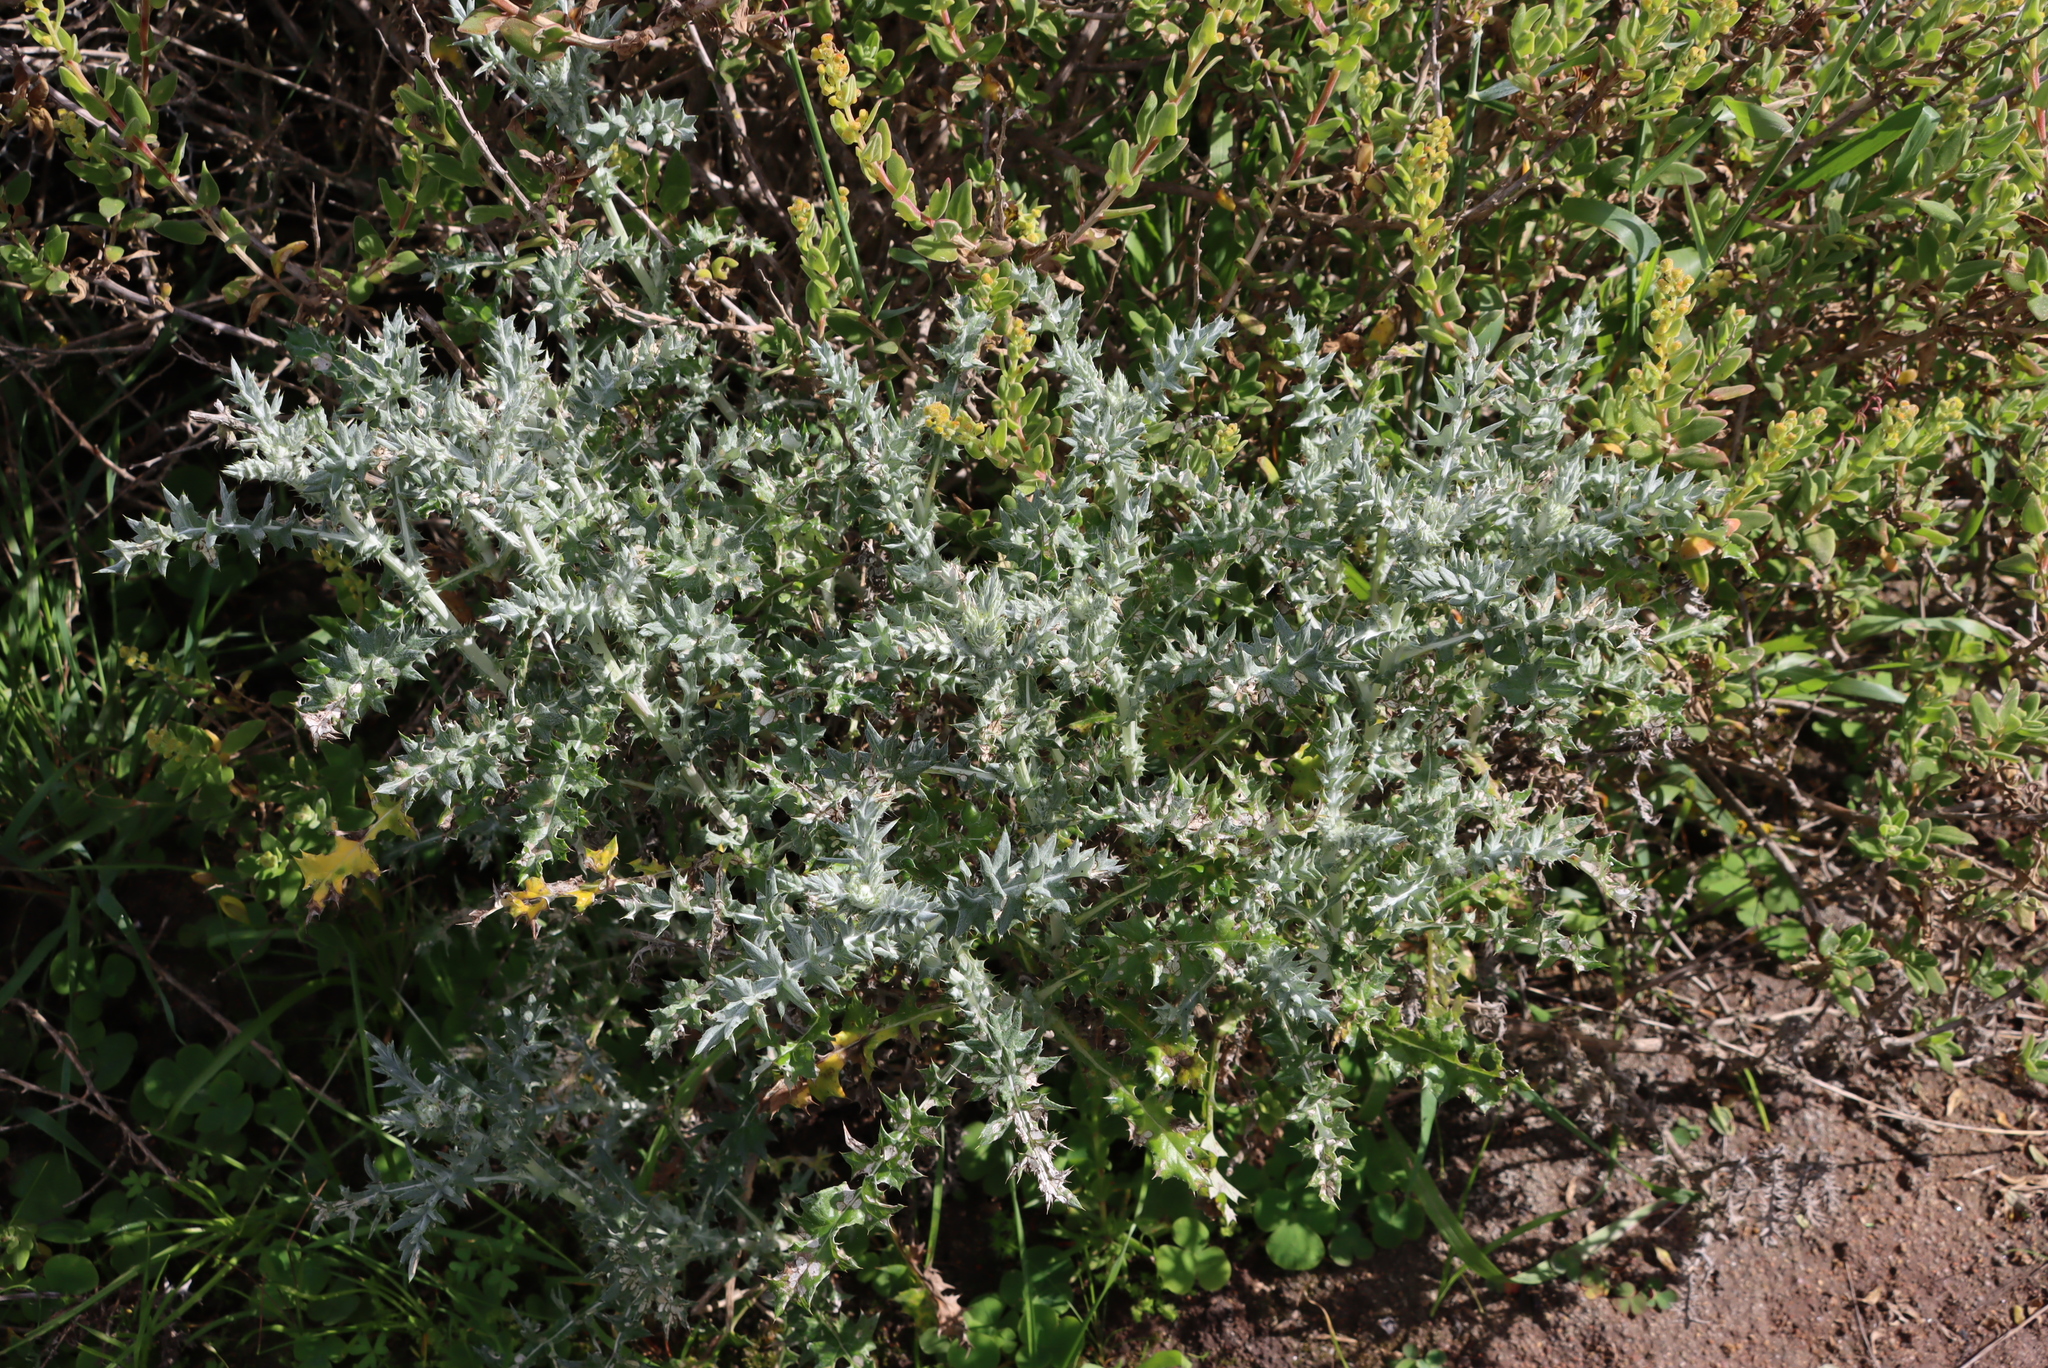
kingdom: Plantae
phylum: Tracheophyta
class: Magnoliopsida
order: Asterales
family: Asteraceae
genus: Berkheya
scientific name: Berkheya rigida
